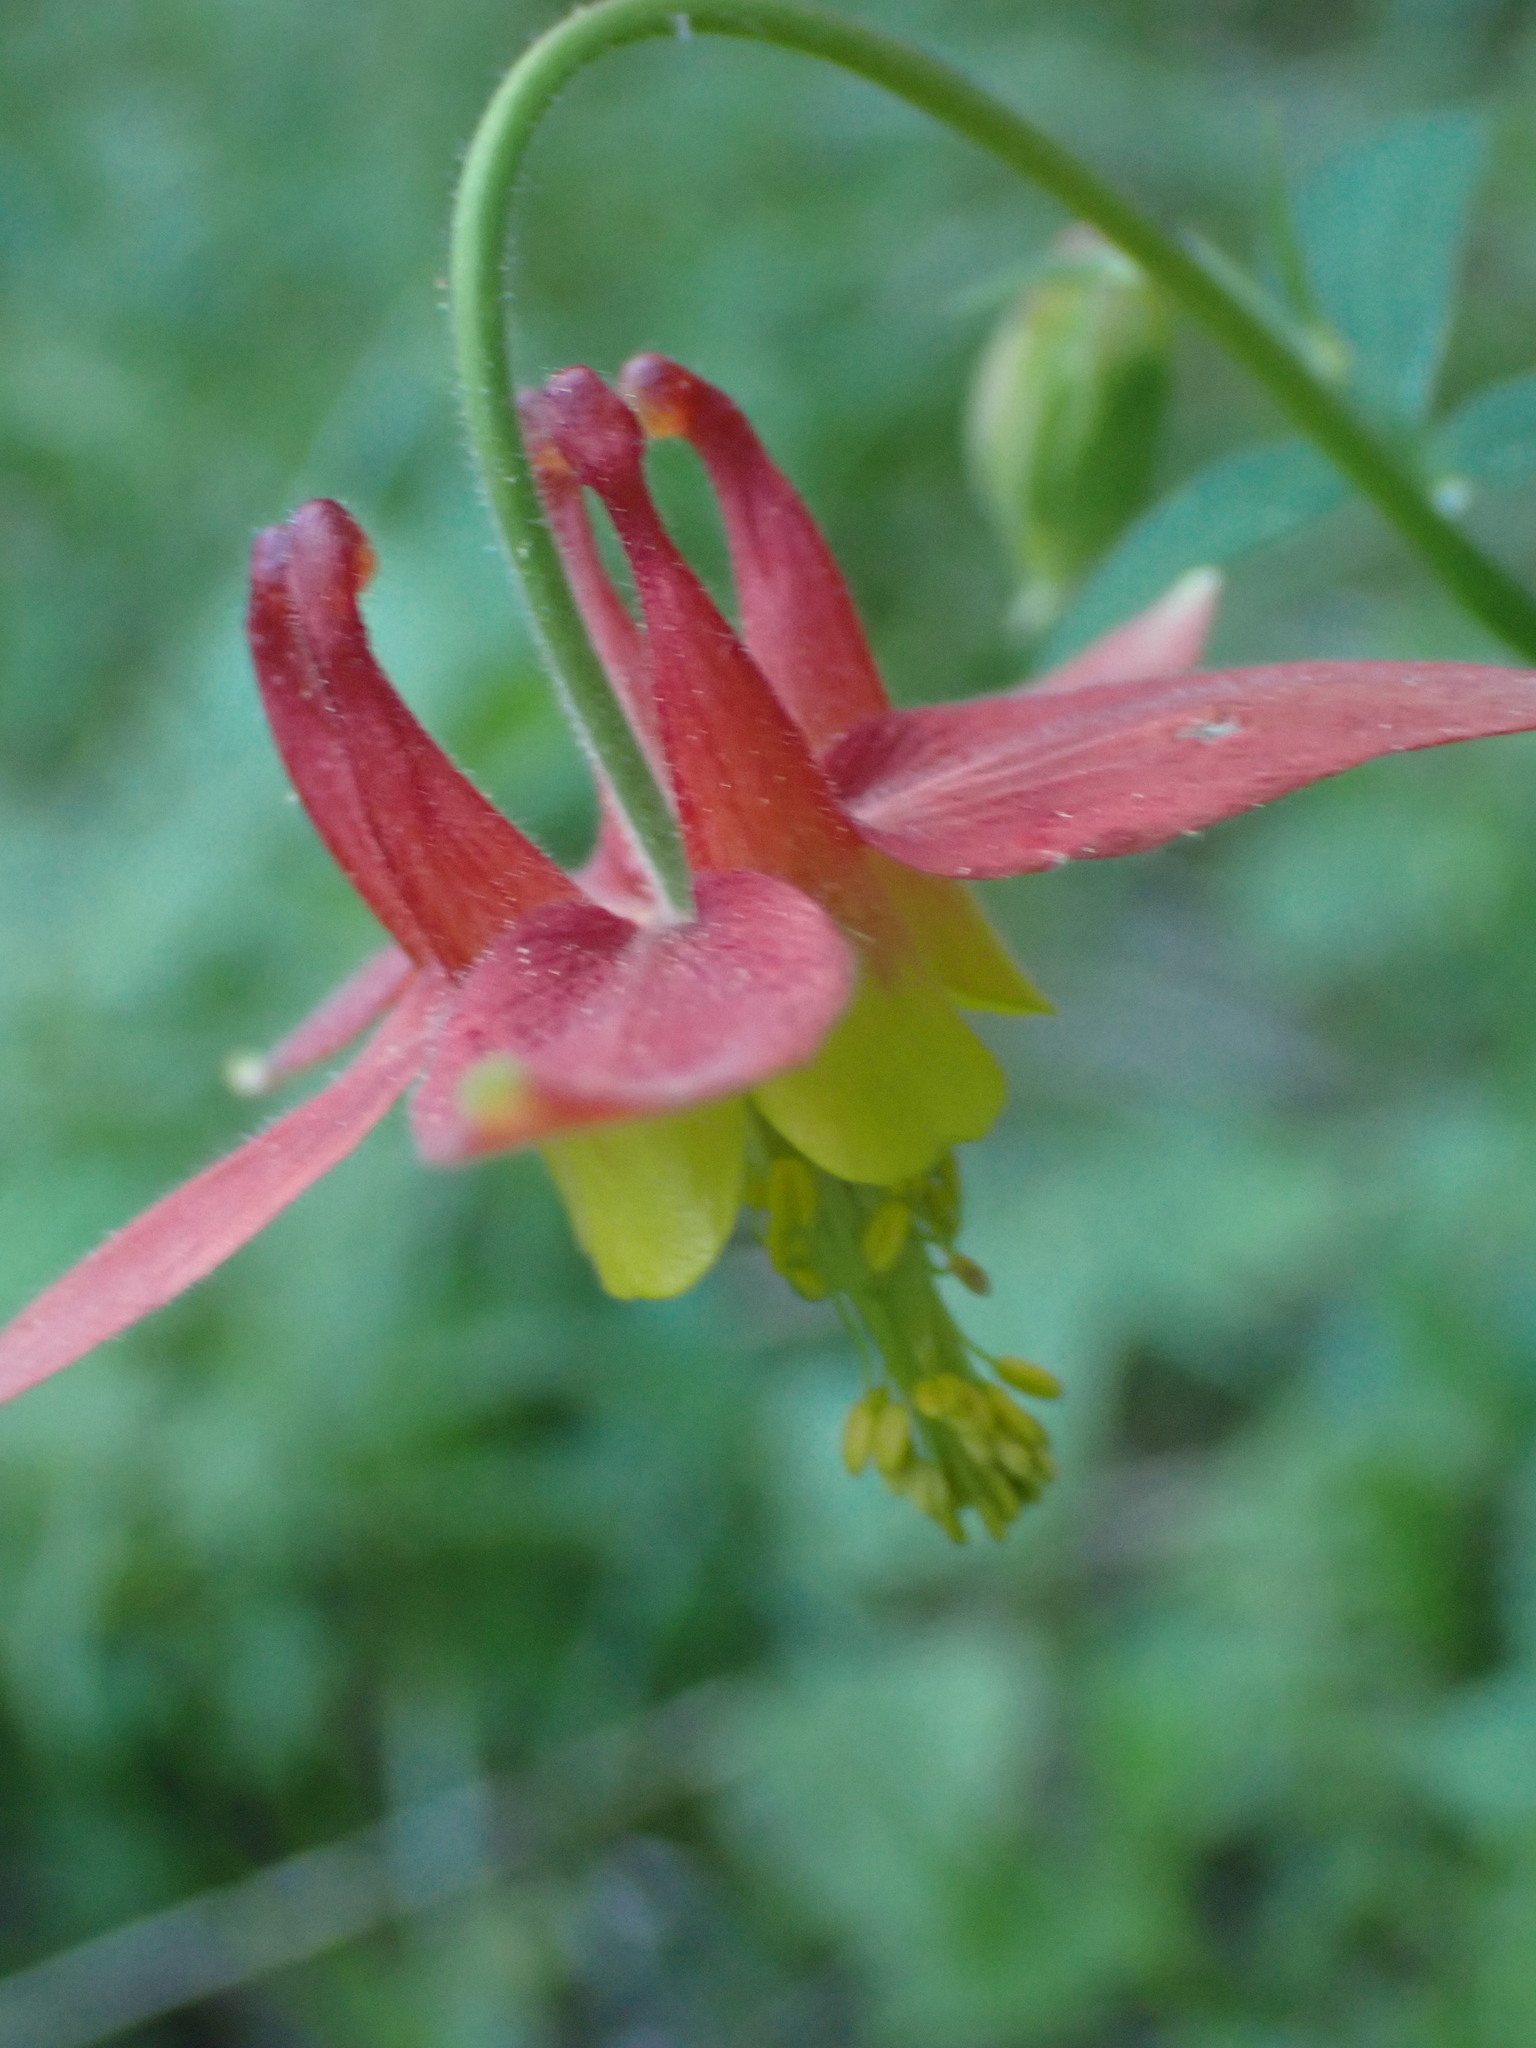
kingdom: Plantae
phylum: Tracheophyta
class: Magnoliopsida
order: Ranunculales
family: Ranunculaceae
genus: Aquilegia
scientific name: Aquilegia formosa
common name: Sitka columbine
